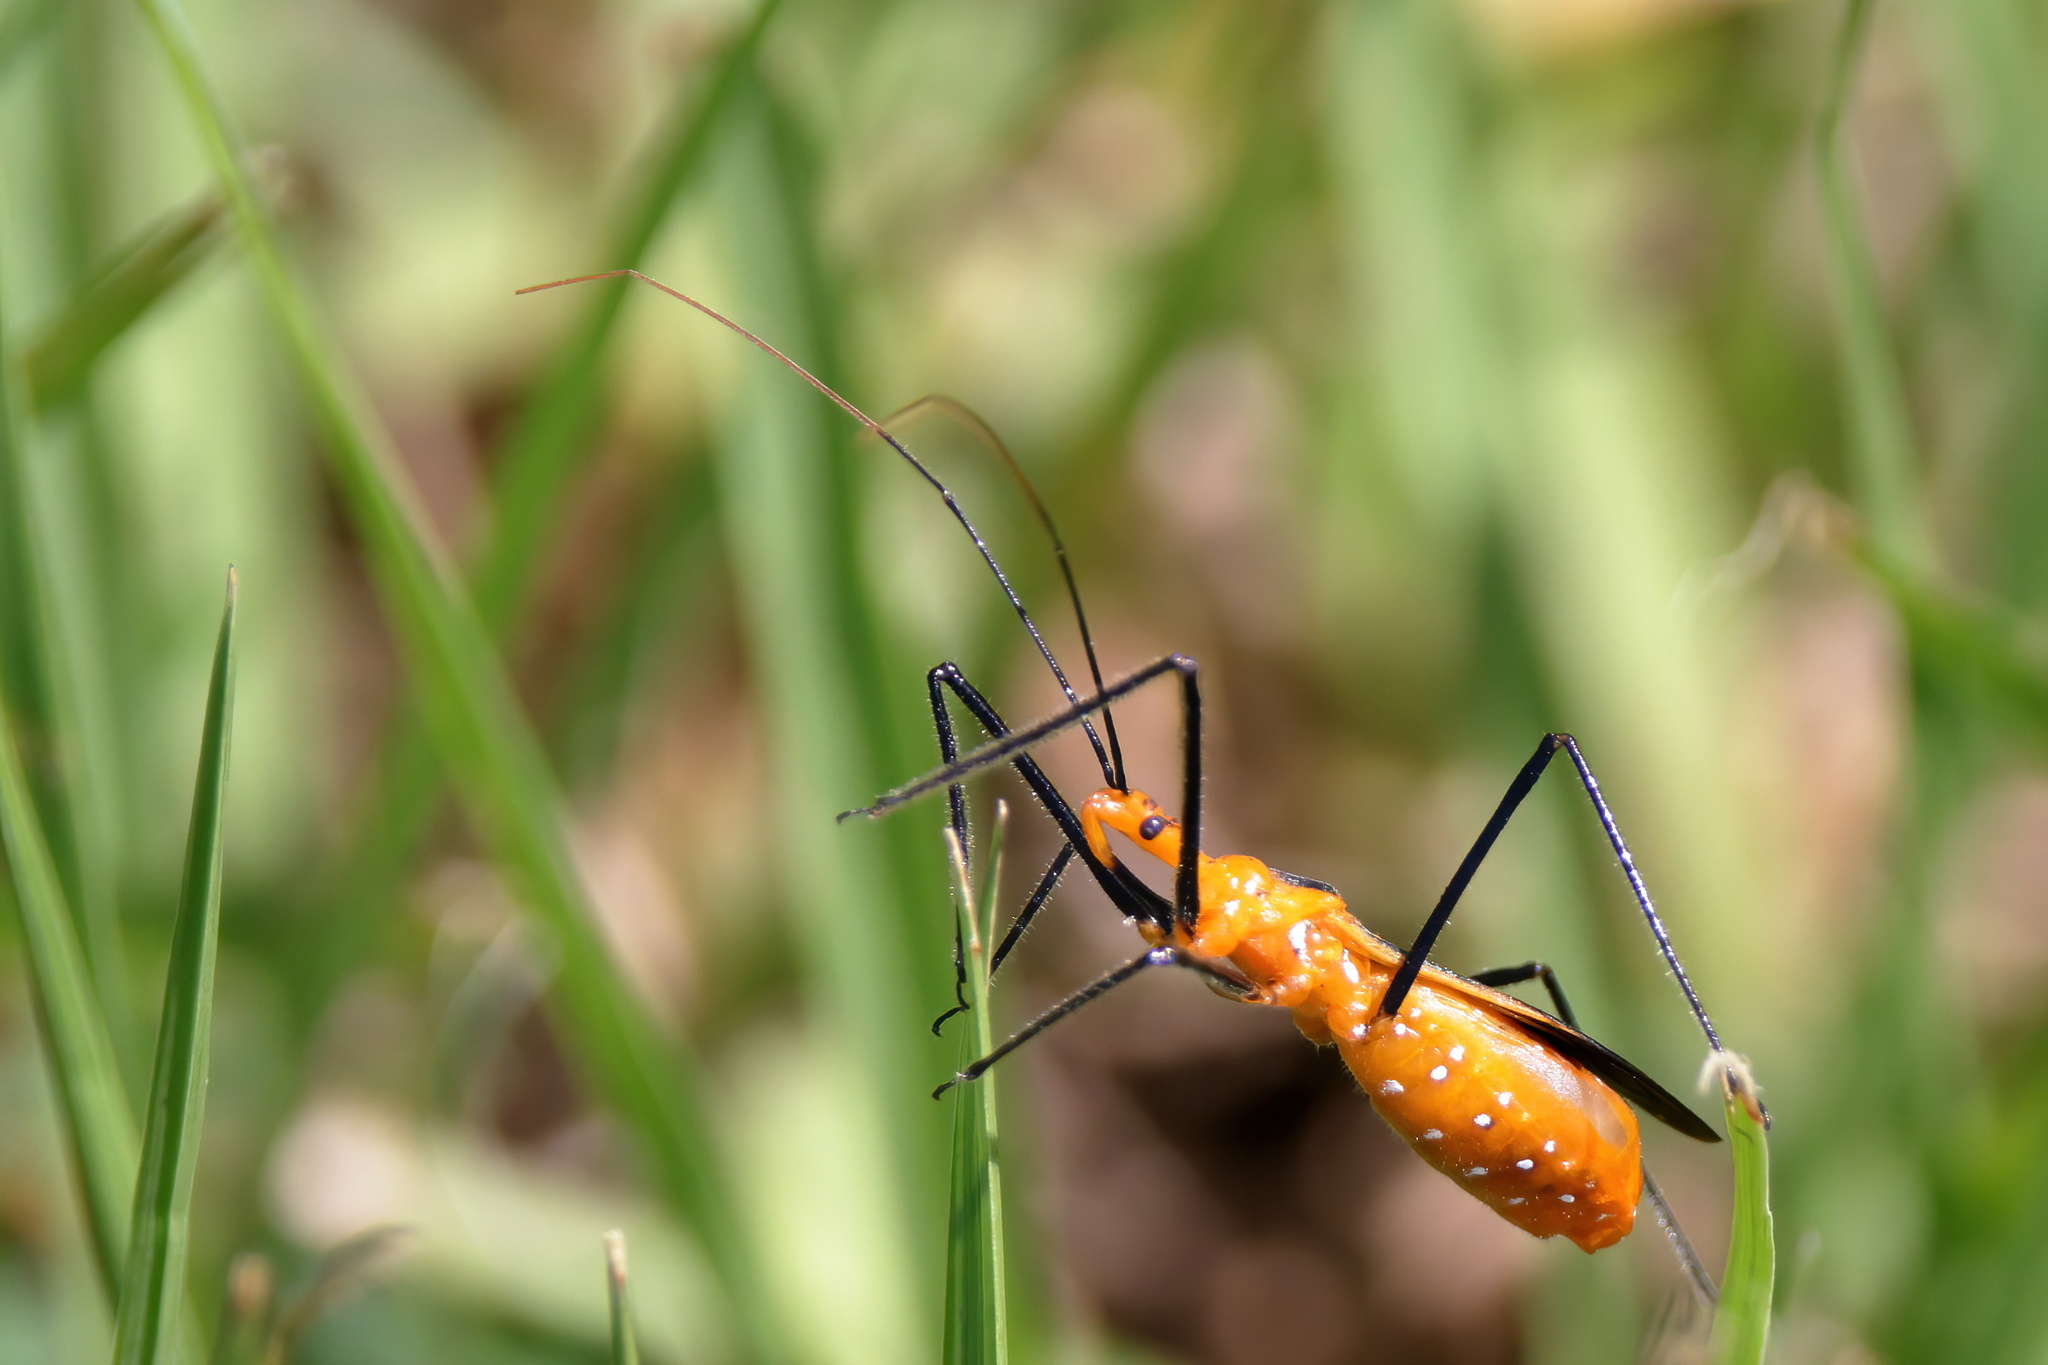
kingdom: Animalia
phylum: Arthropoda
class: Insecta
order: Hemiptera
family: Reduviidae
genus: Zelus
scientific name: Zelus longipes
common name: Milkweed assassin bug
